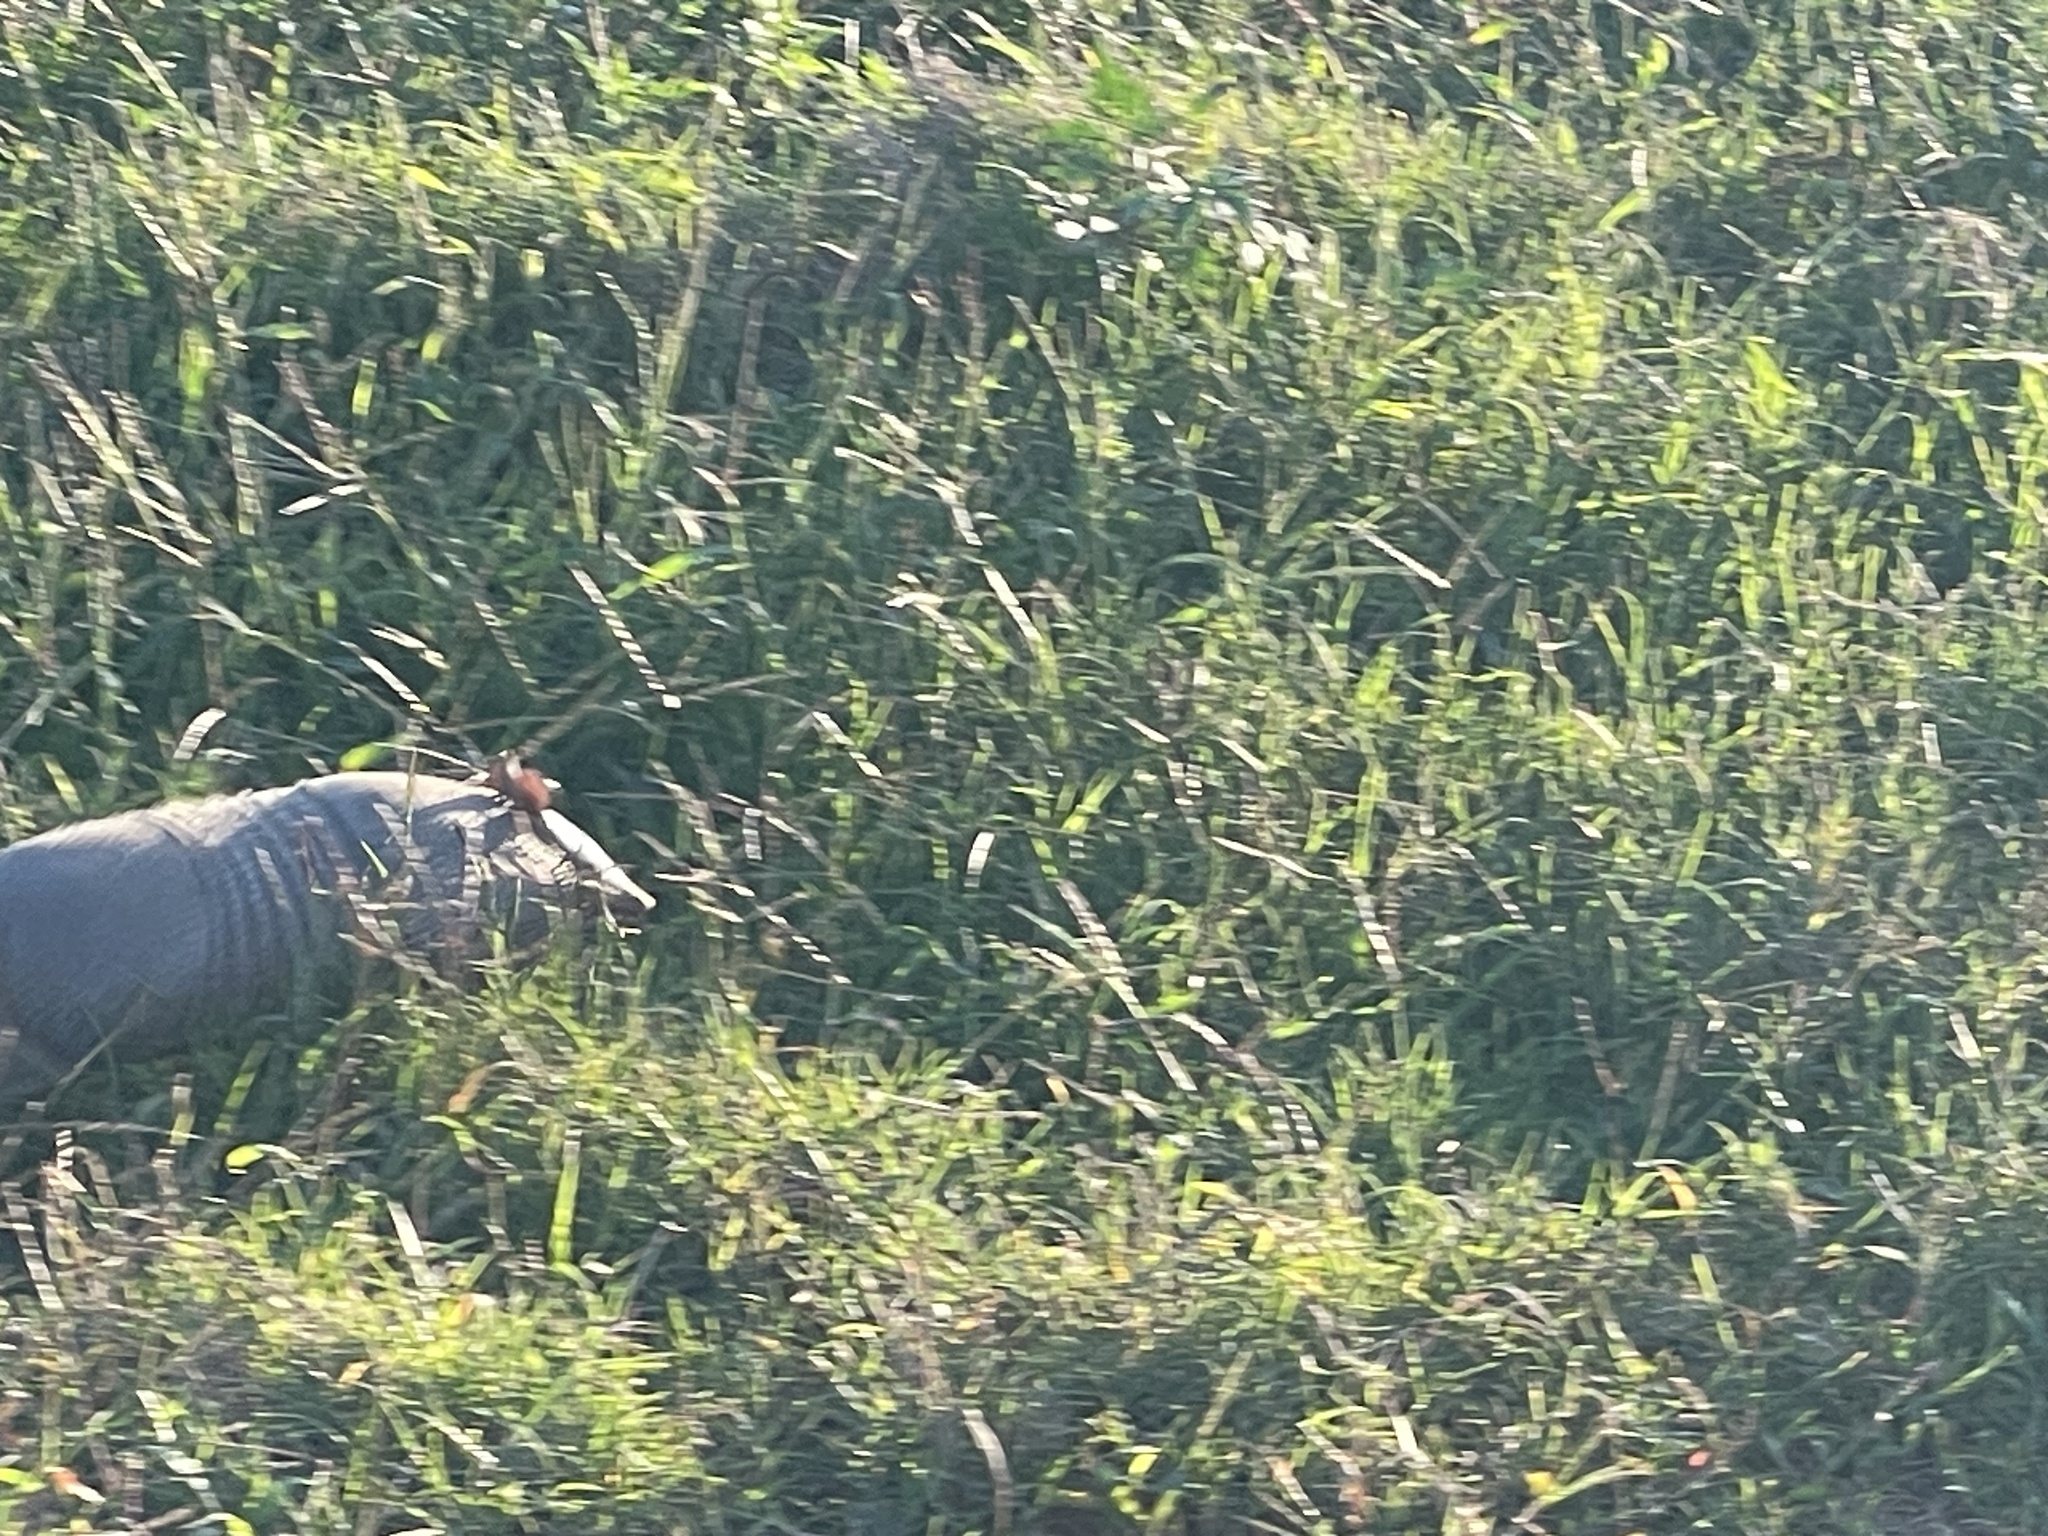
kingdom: Animalia
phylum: Chordata
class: Mammalia
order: Cingulata
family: Dasypodidae
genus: Dasypus
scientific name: Dasypus septemcinctus
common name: Seven-banded armadillo
